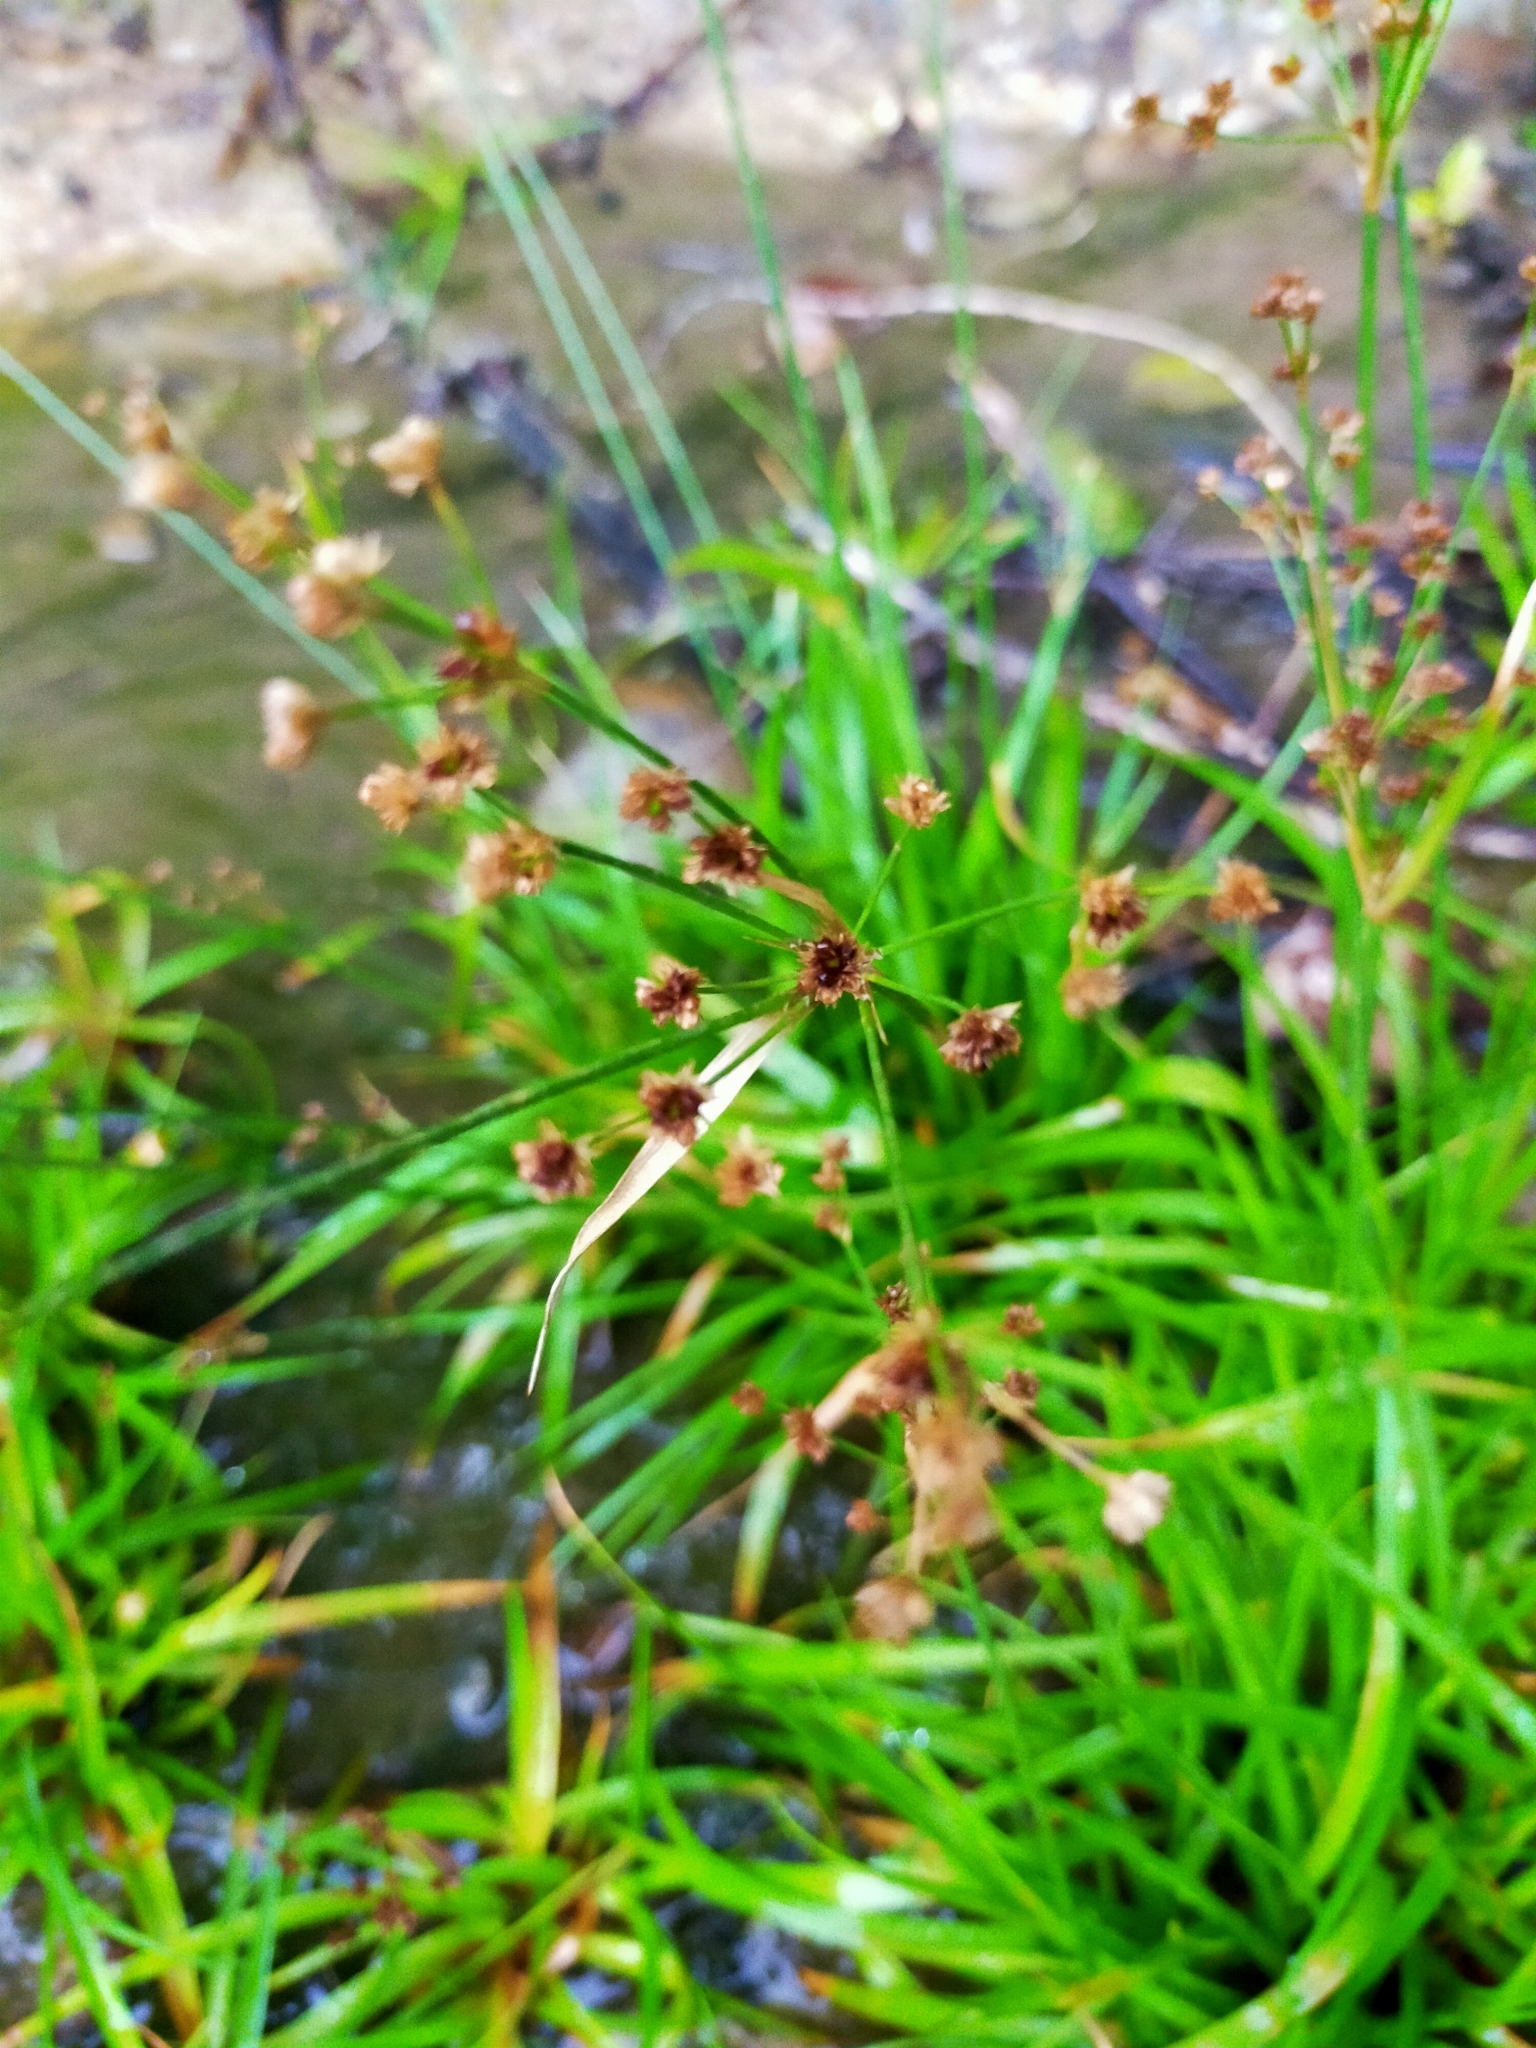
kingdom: Plantae
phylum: Tracheophyta
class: Liliopsida
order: Poales
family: Juncaceae
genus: Juncus
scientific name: Juncus planifolius
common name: Broadleaf rush
